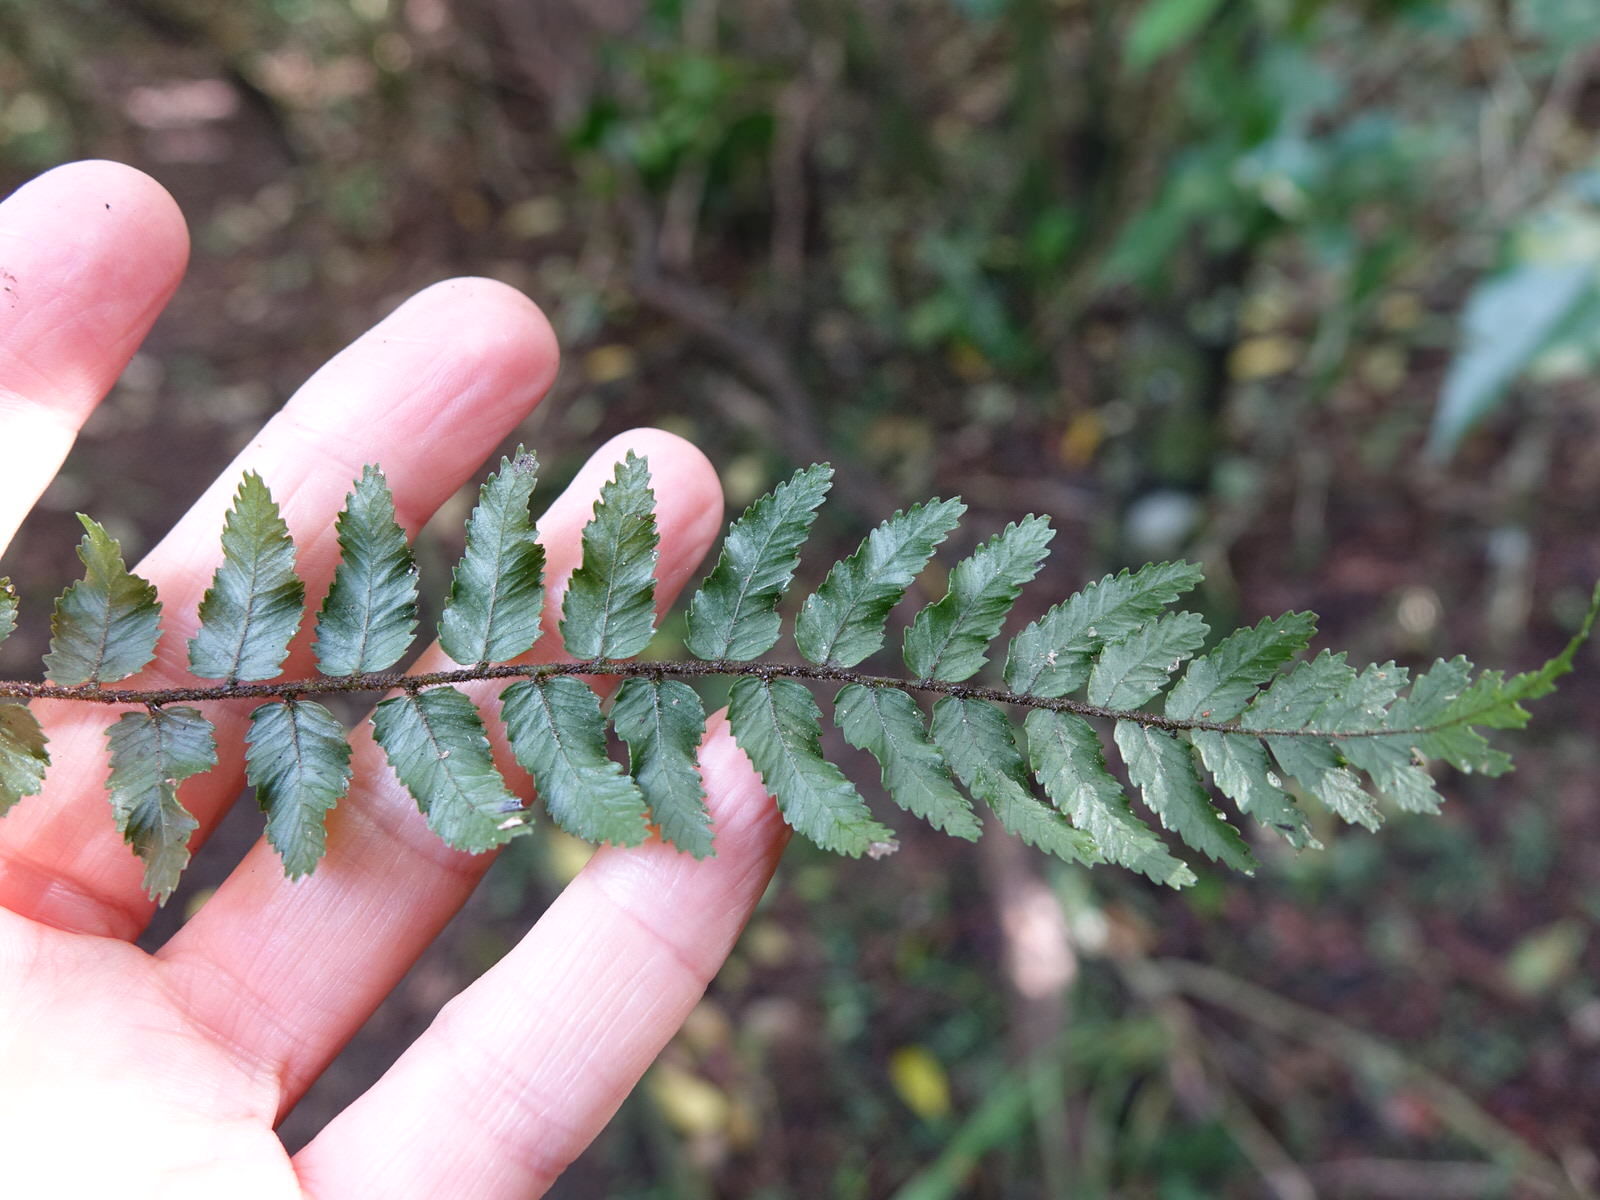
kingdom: Plantae
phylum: Tracheophyta
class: Polypodiopsida
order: Polypodiales
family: Blechnaceae
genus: Icarus
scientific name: Icarus filiformis
